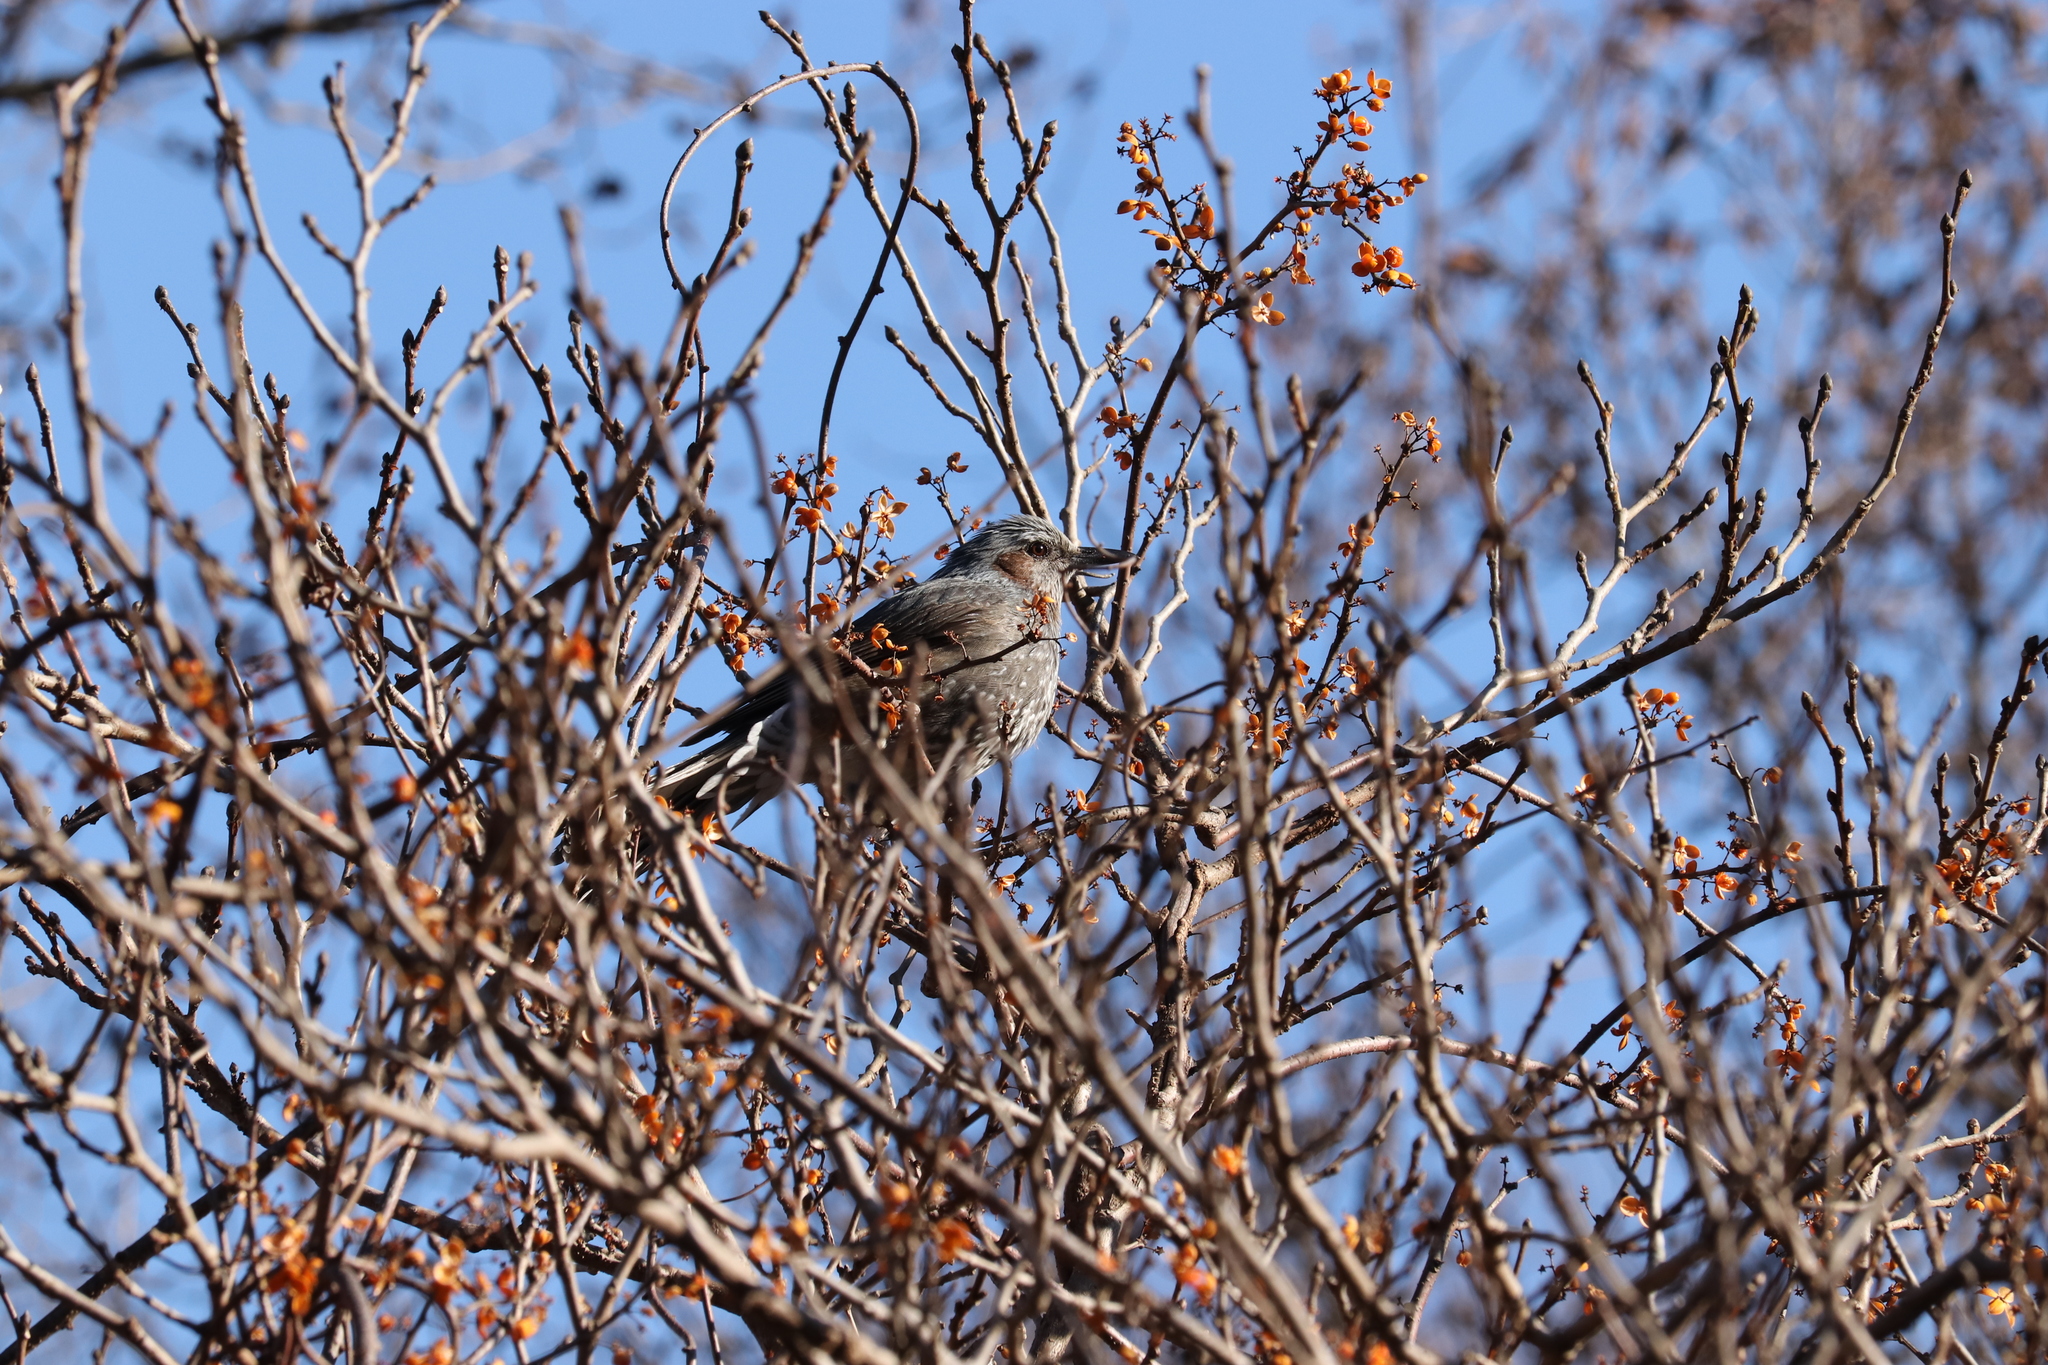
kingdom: Animalia
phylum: Chordata
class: Aves
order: Passeriformes
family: Pycnonotidae
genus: Hypsipetes
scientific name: Hypsipetes amaurotis
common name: Brown-eared bulbul
